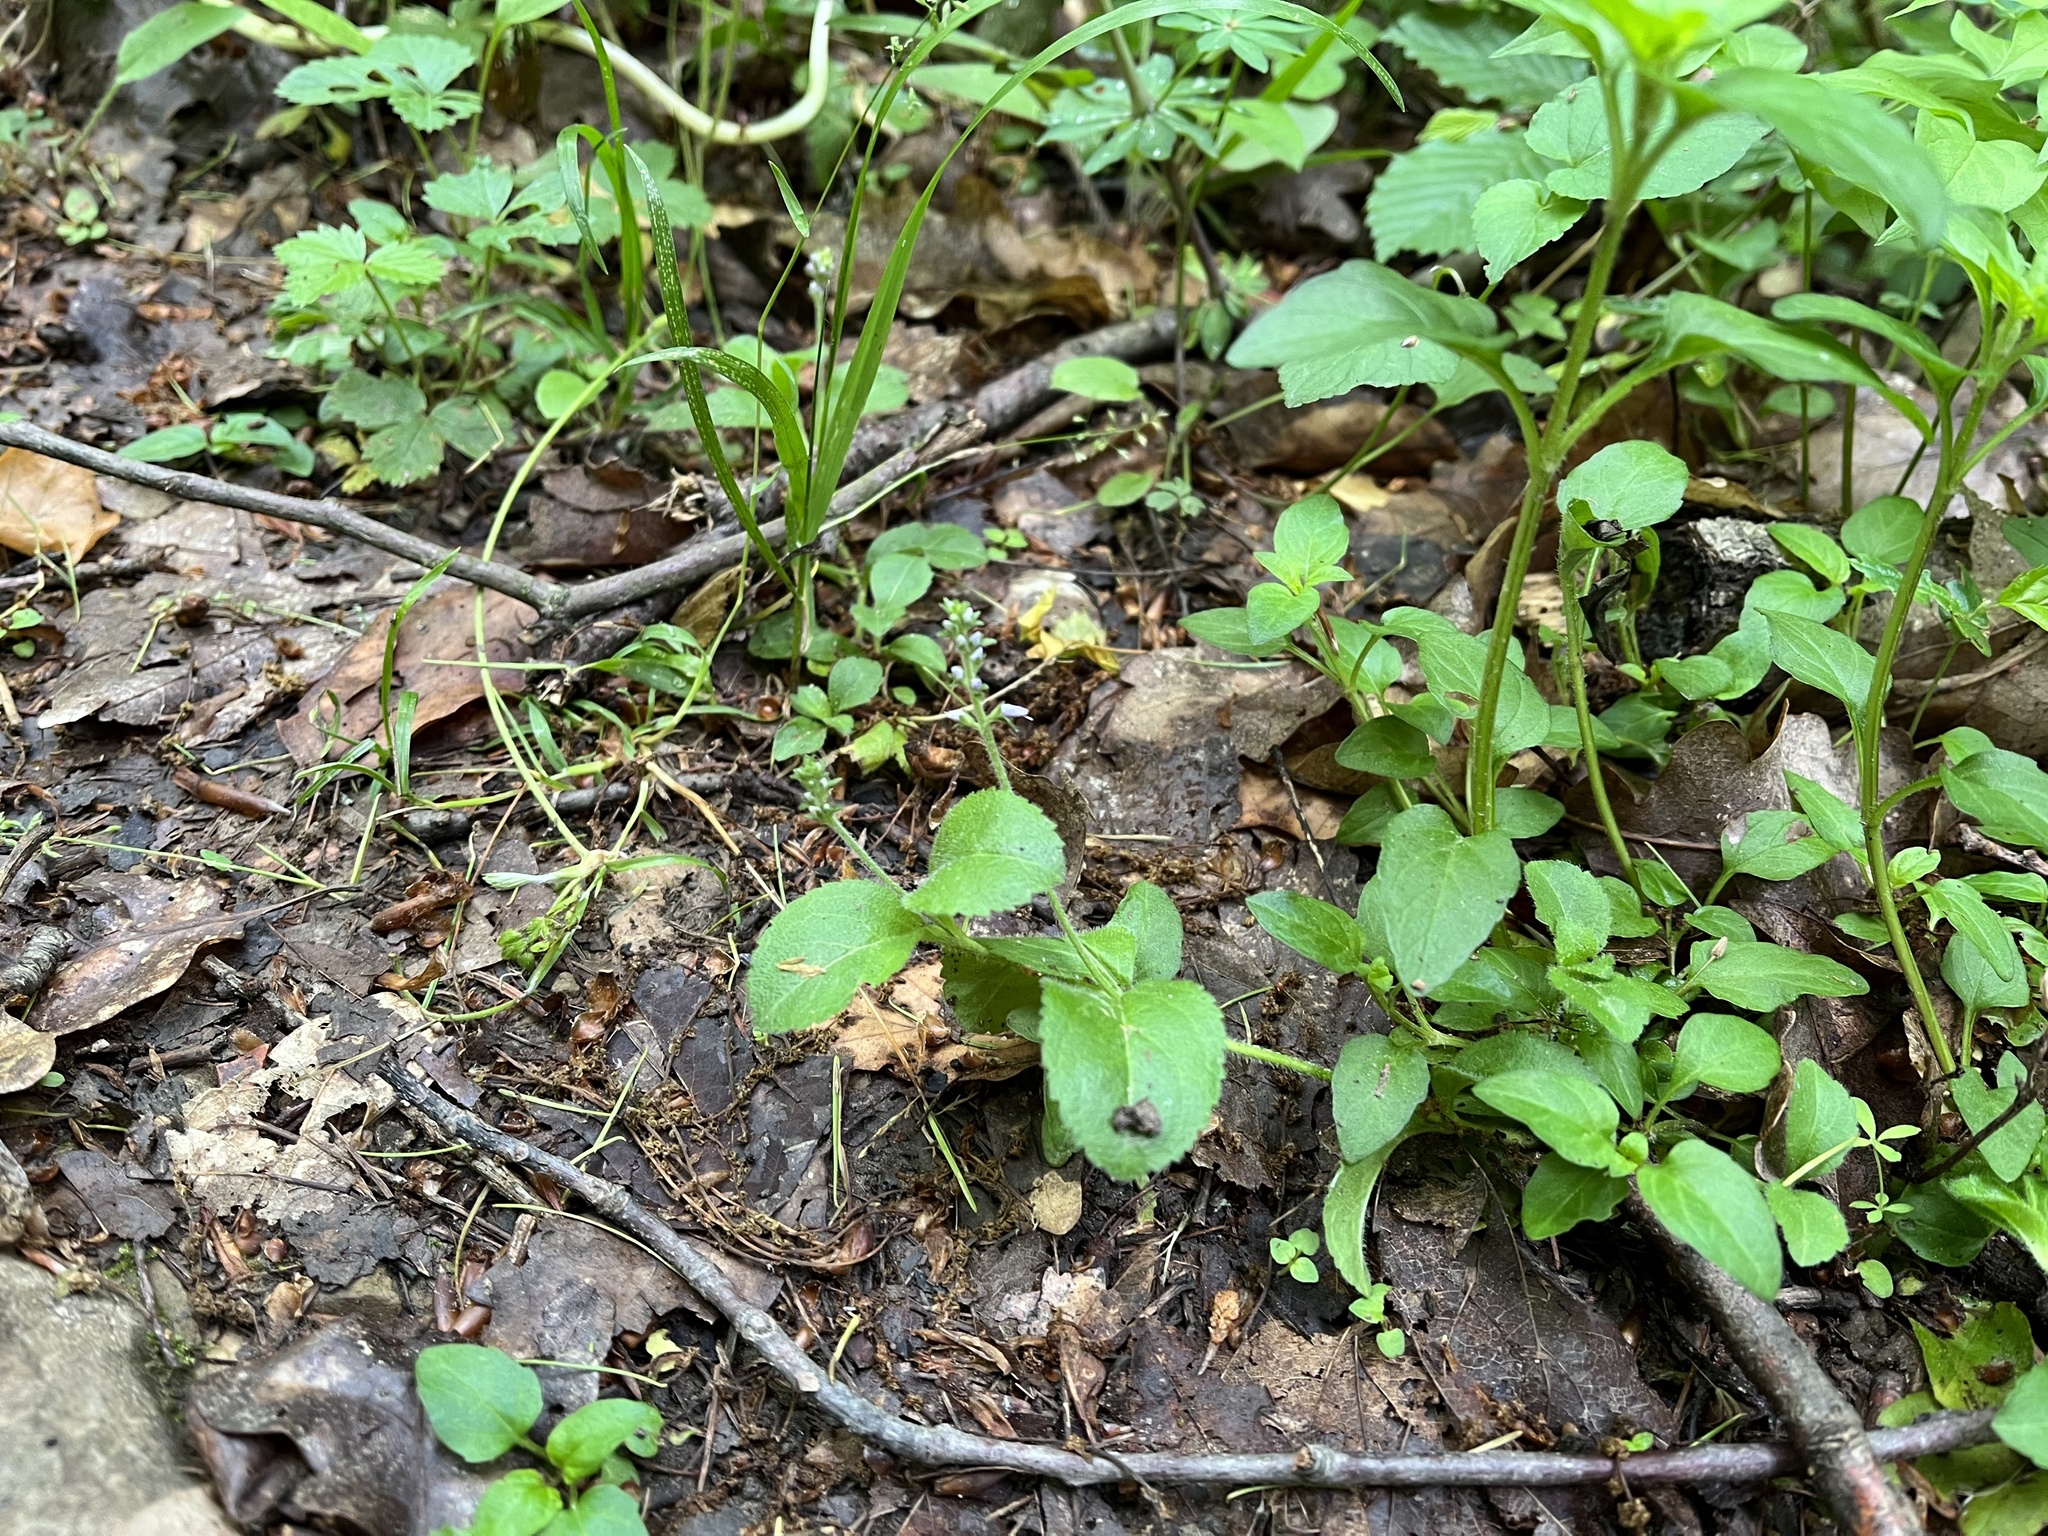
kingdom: Plantae
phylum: Tracheophyta
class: Magnoliopsida
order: Lamiales
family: Plantaginaceae
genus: Veronica
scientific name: Veronica officinalis
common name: Common speedwell
